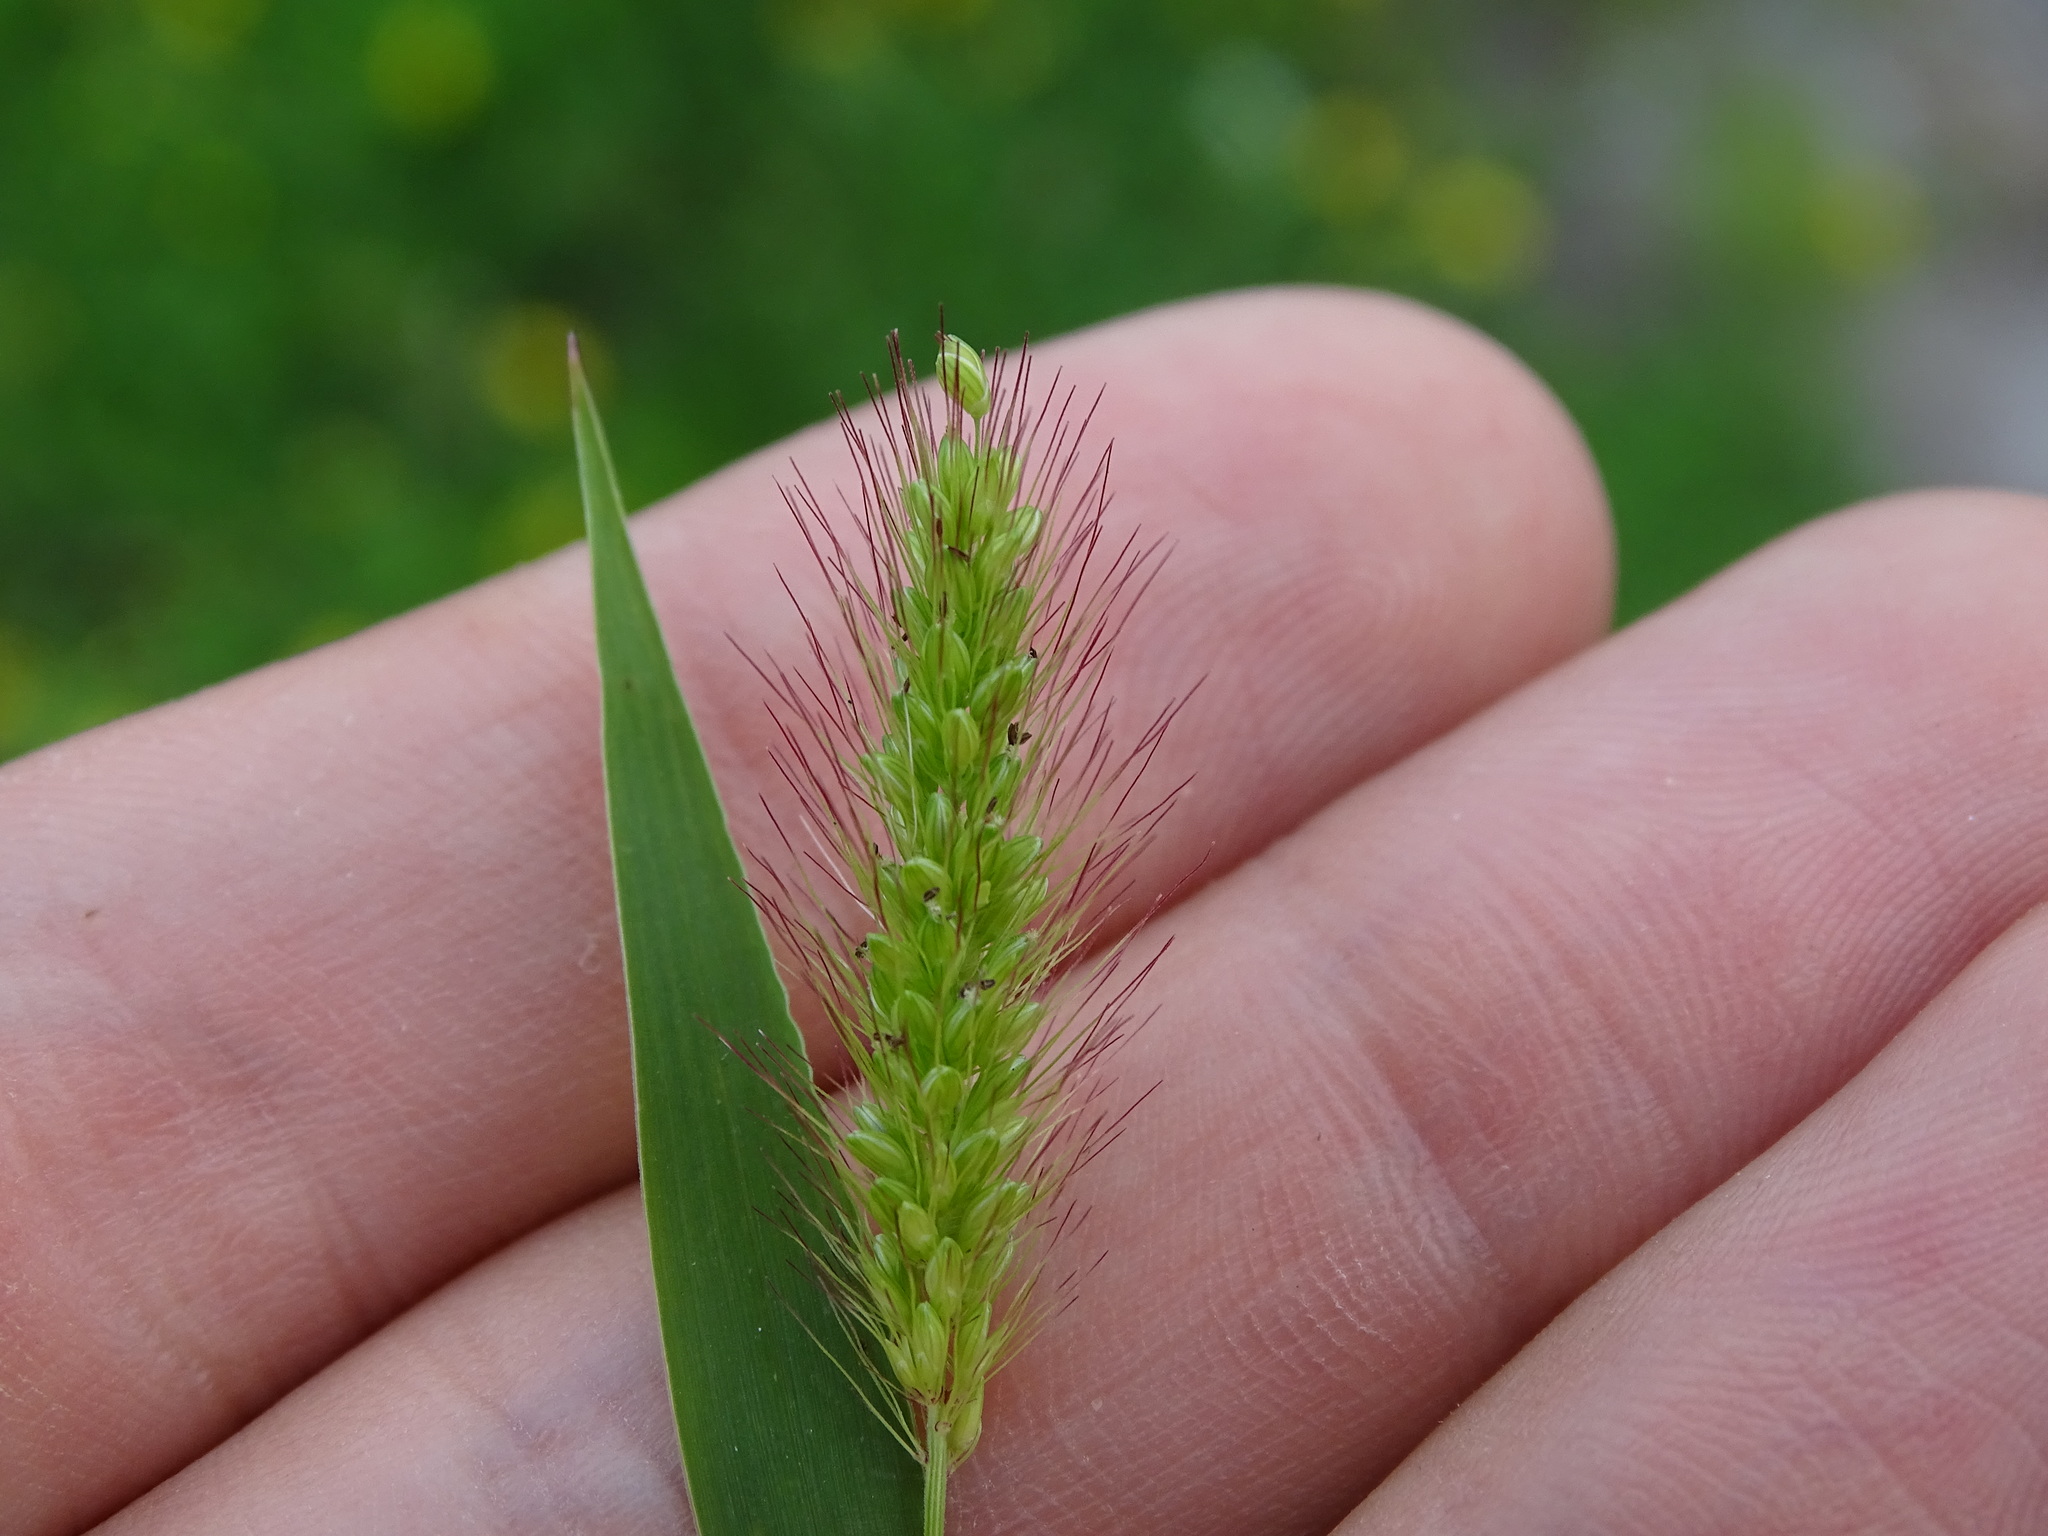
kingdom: Plantae
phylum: Tracheophyta
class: Liliopsida
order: Poales
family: Poaceae
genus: Setaria
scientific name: Setaria viridis
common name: Green bristlegrass
